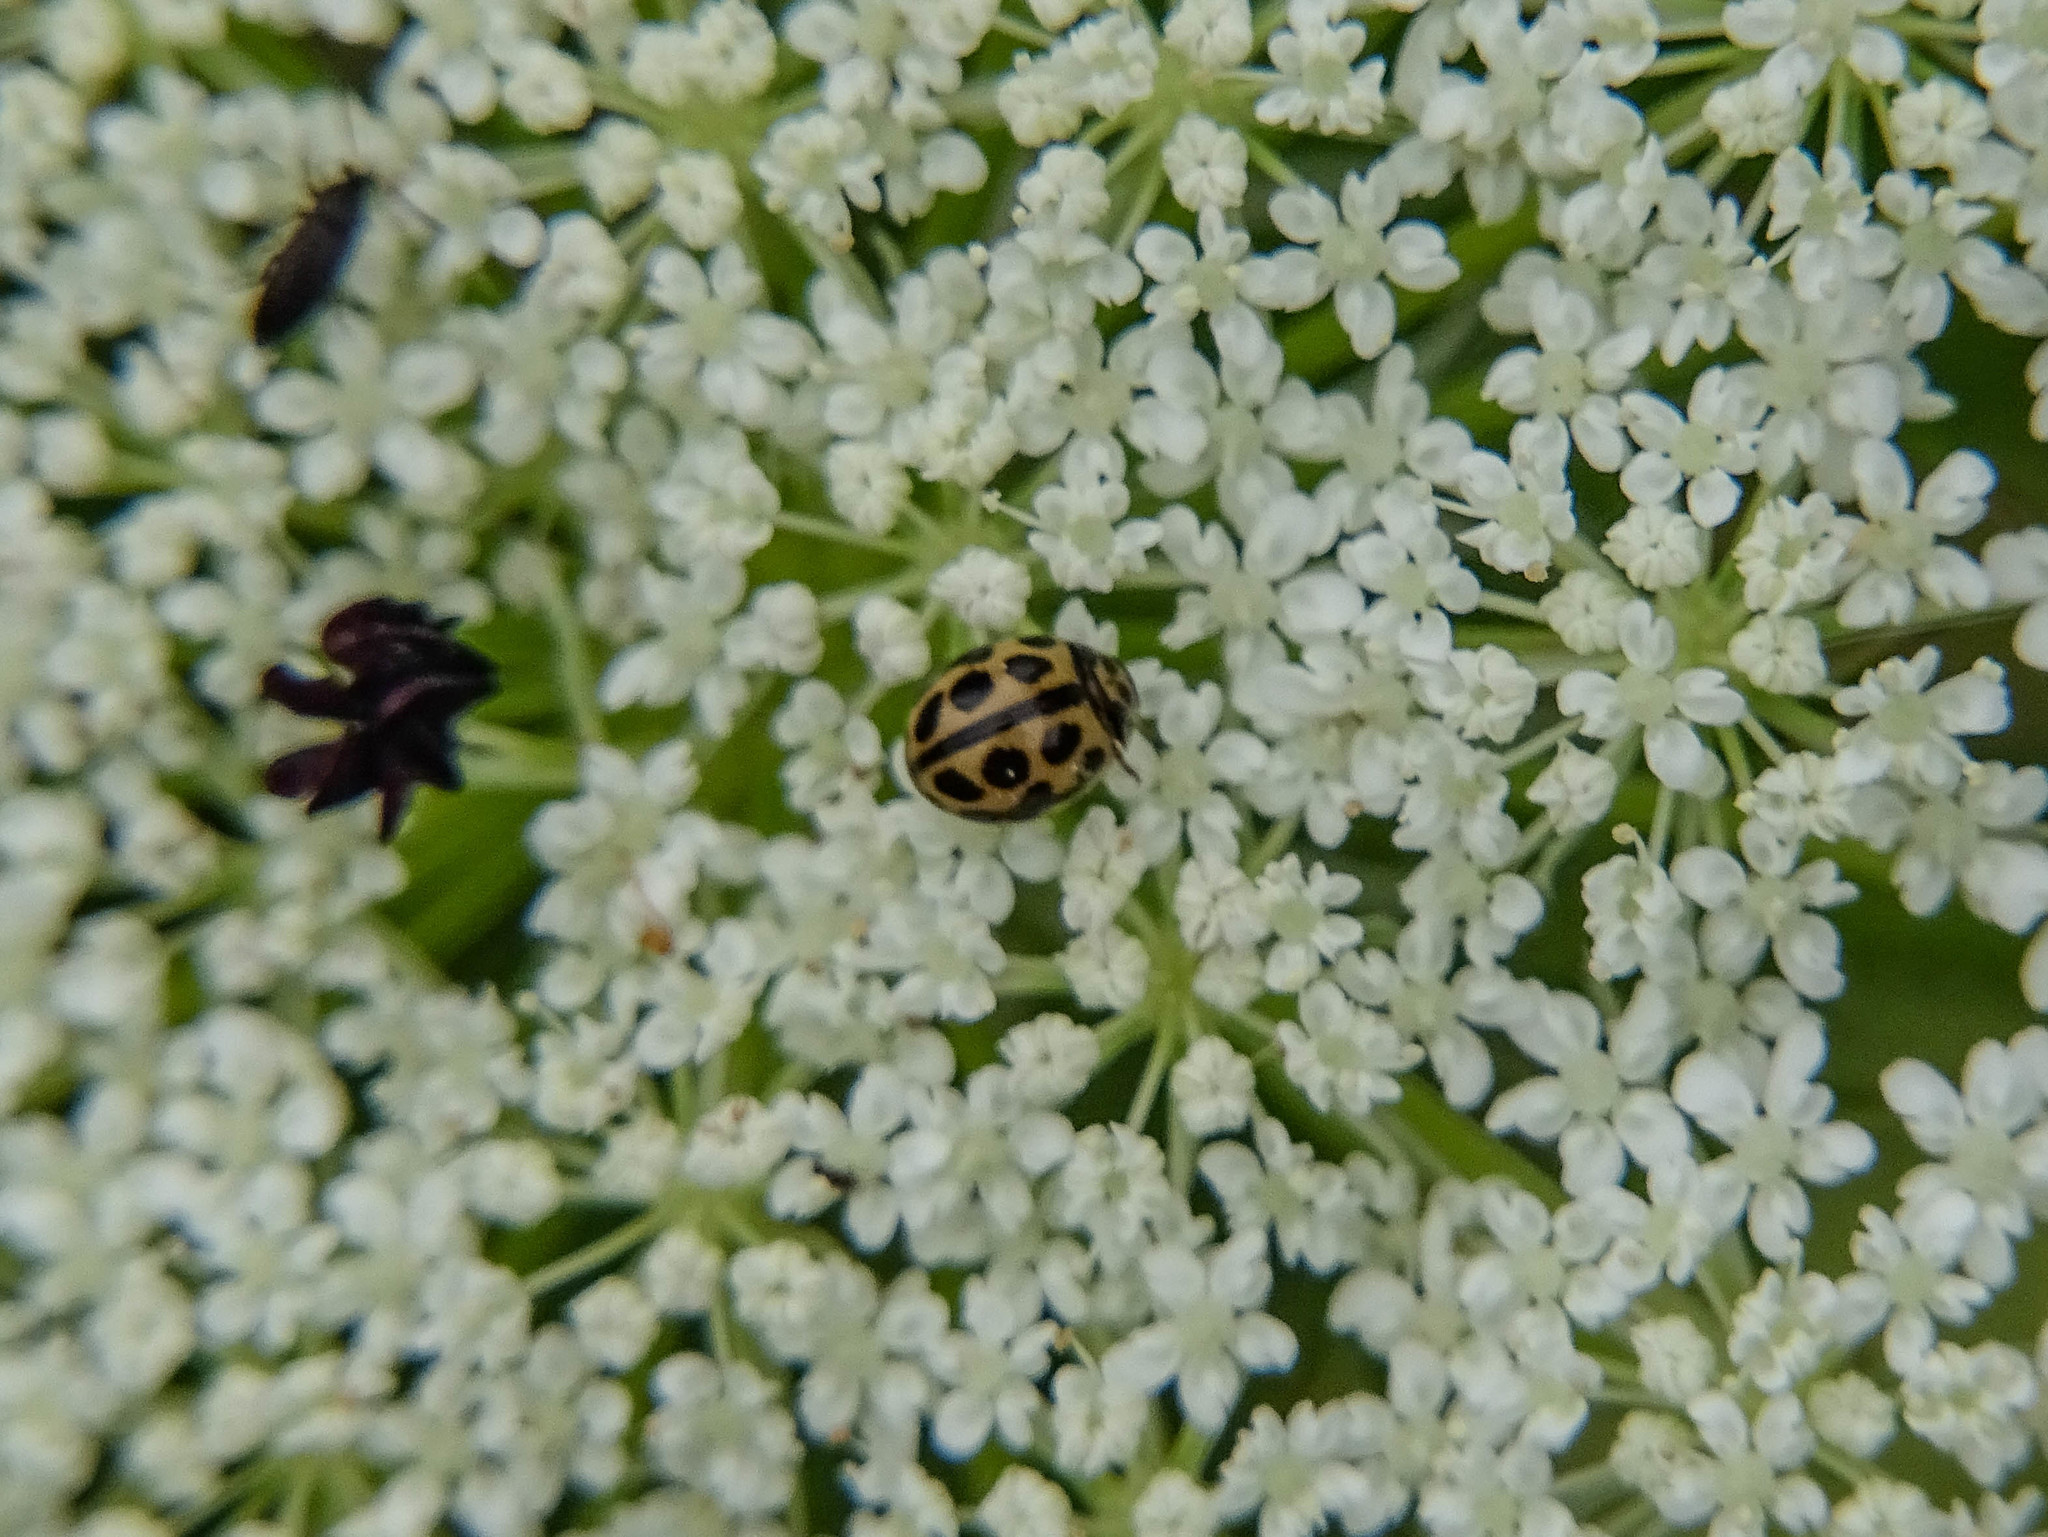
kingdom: Animalia
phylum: Arthropoda
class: Insecta
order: Coleoptera
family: Coccinellidae
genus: Tytthaspis
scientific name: Tytthaspis sedecimpunctata
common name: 16-spot ladybird
